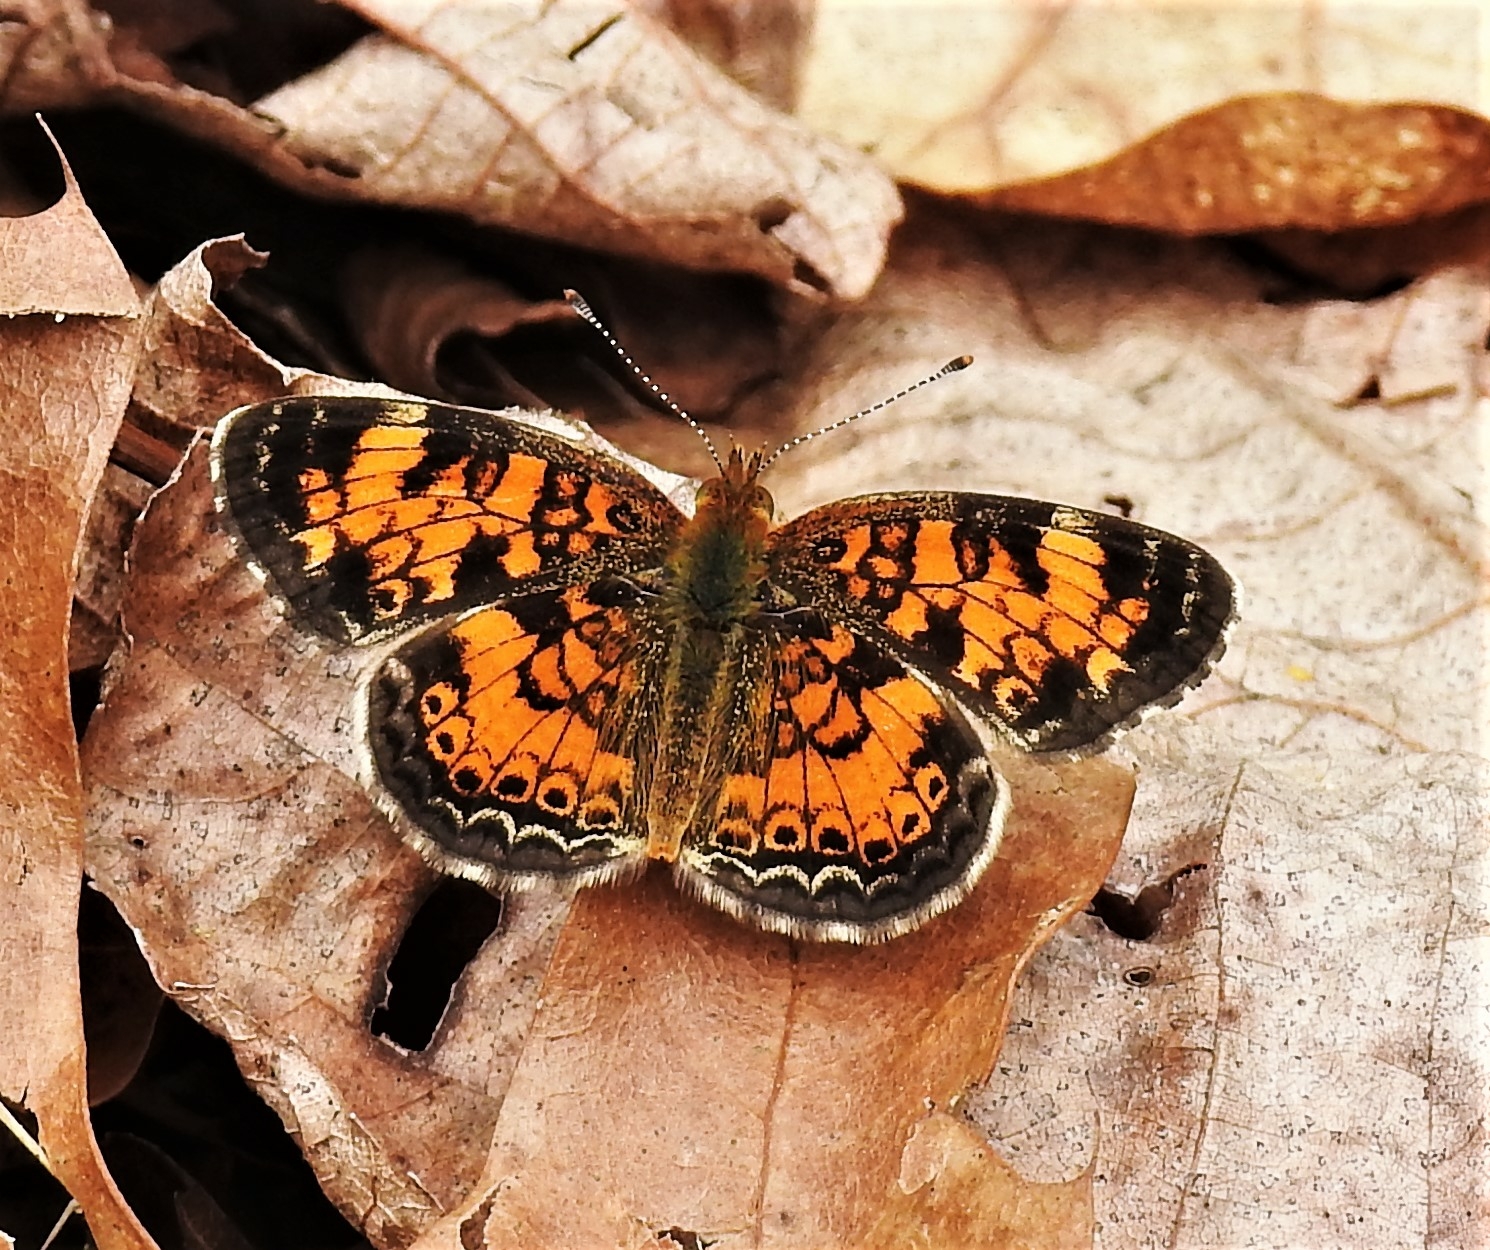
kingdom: Animalia
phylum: Arthropoda
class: Insecta
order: Lepidoptera
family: Nymphalidae
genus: Phyciodes
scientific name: Phyciodes tharos
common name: Pearl crescent
